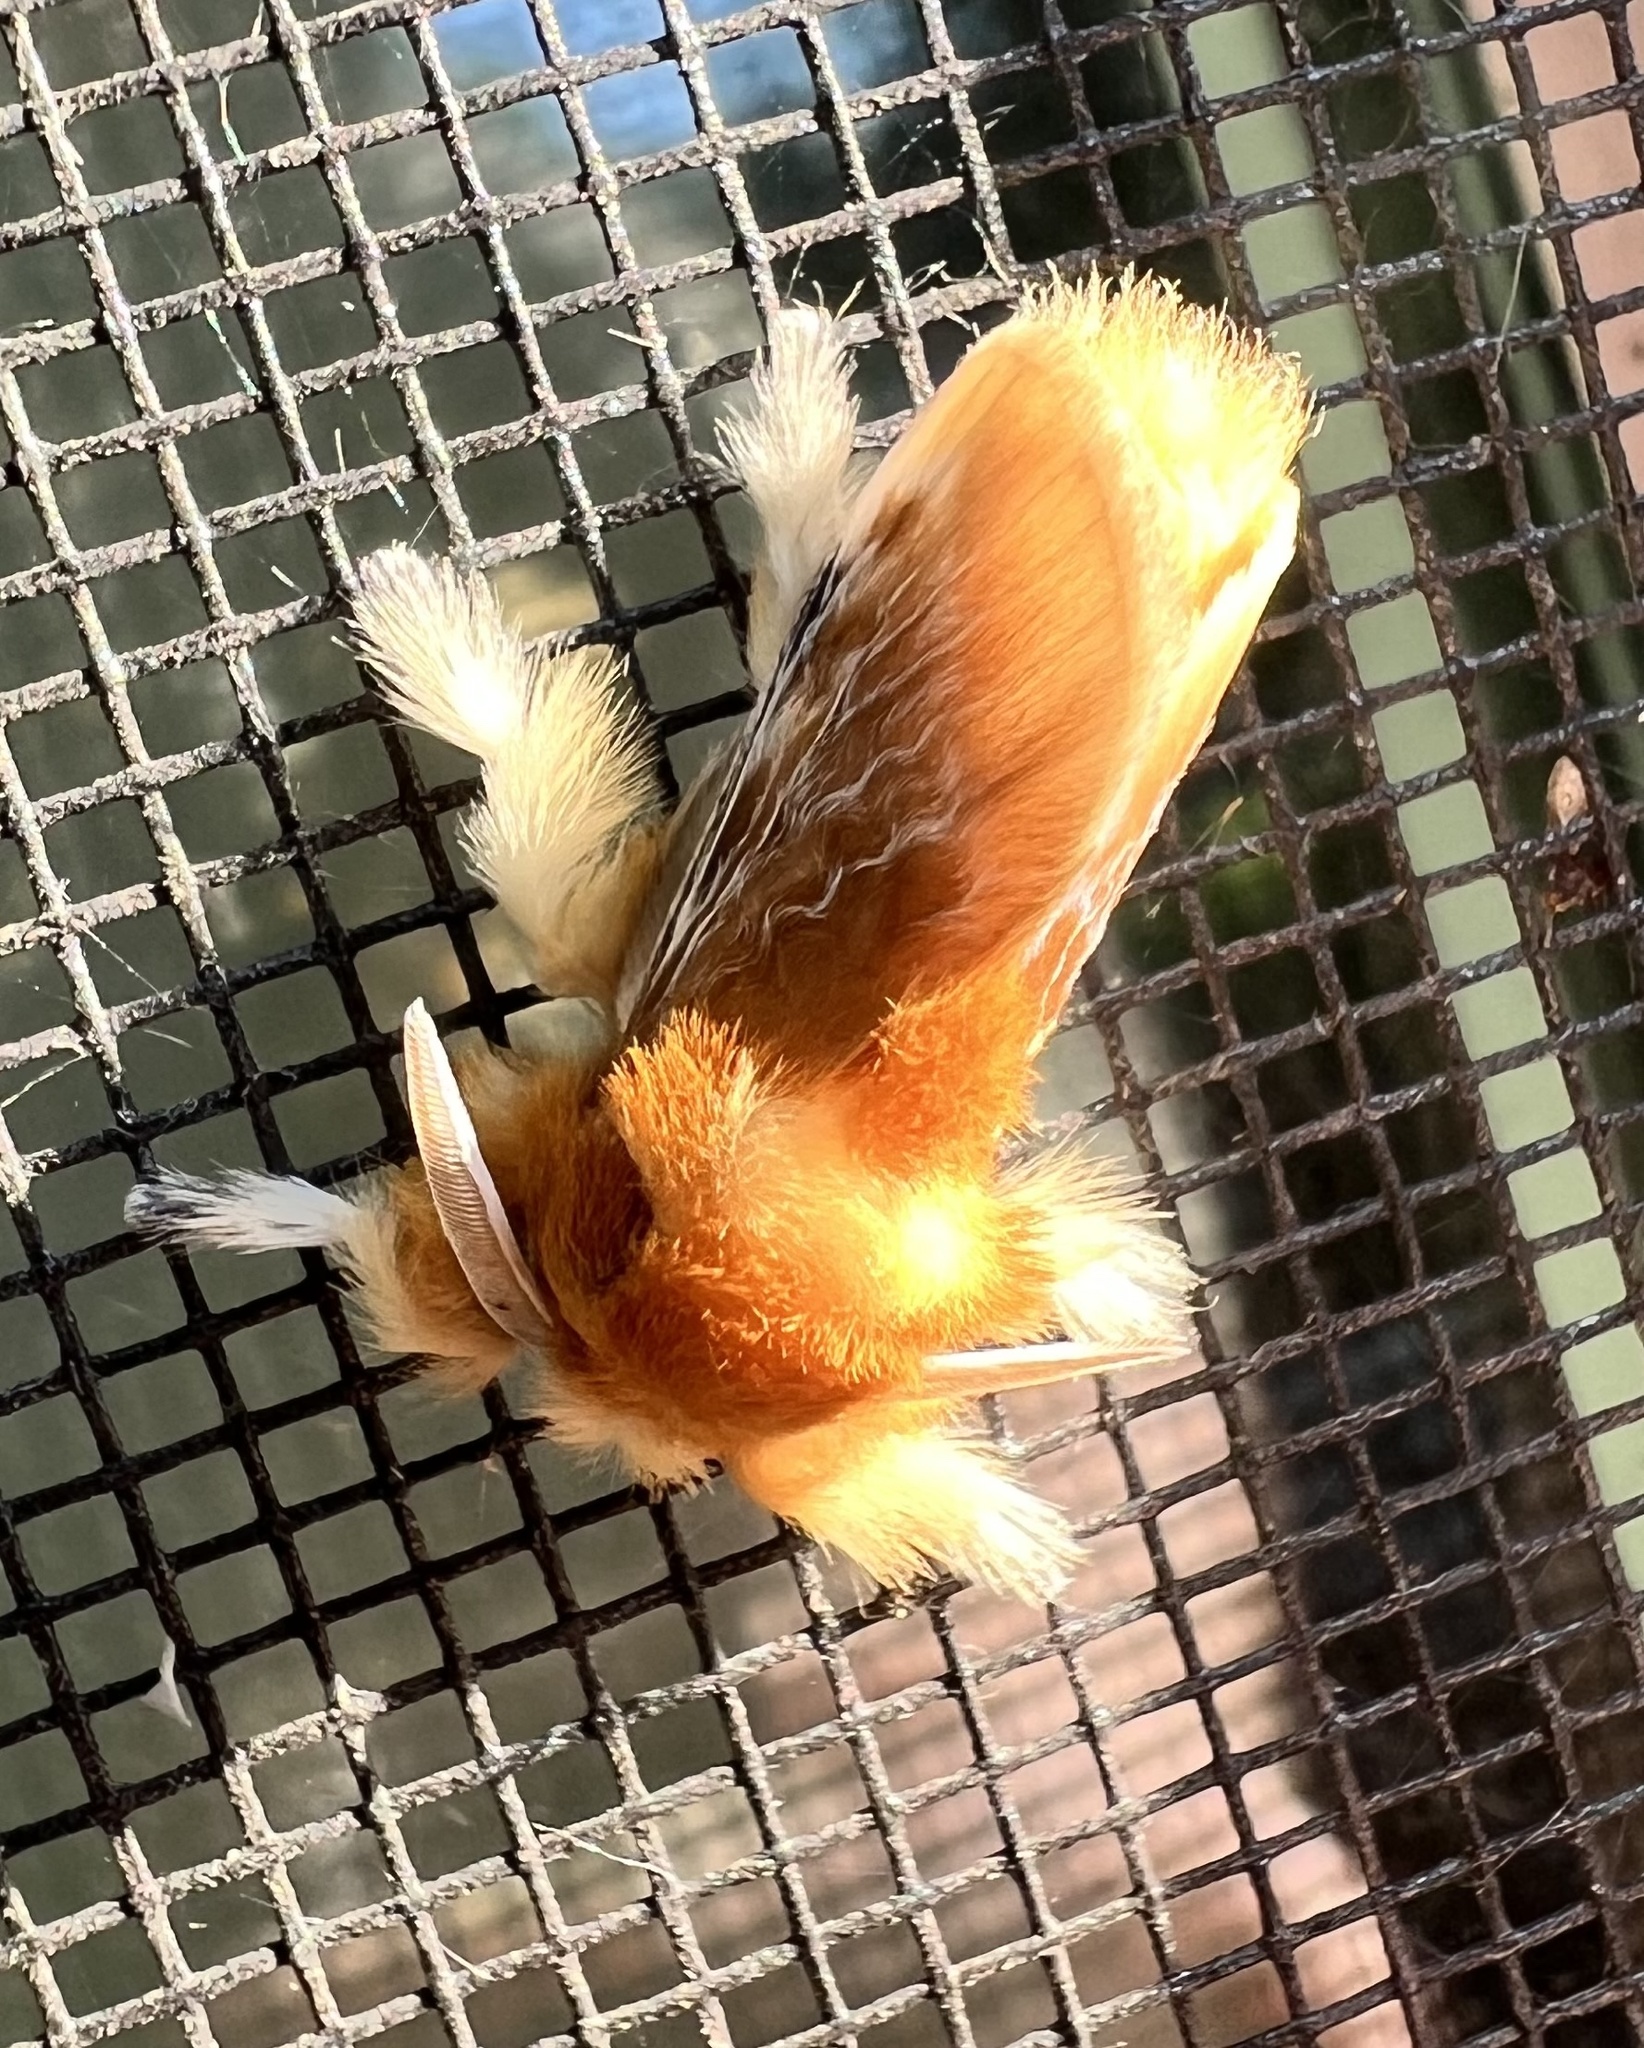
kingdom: Animalia
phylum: Arthropoda
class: Insecta
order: Lepidoptera
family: Megalopygidae
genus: Megalopyge
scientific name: Megalopyge opercularis
